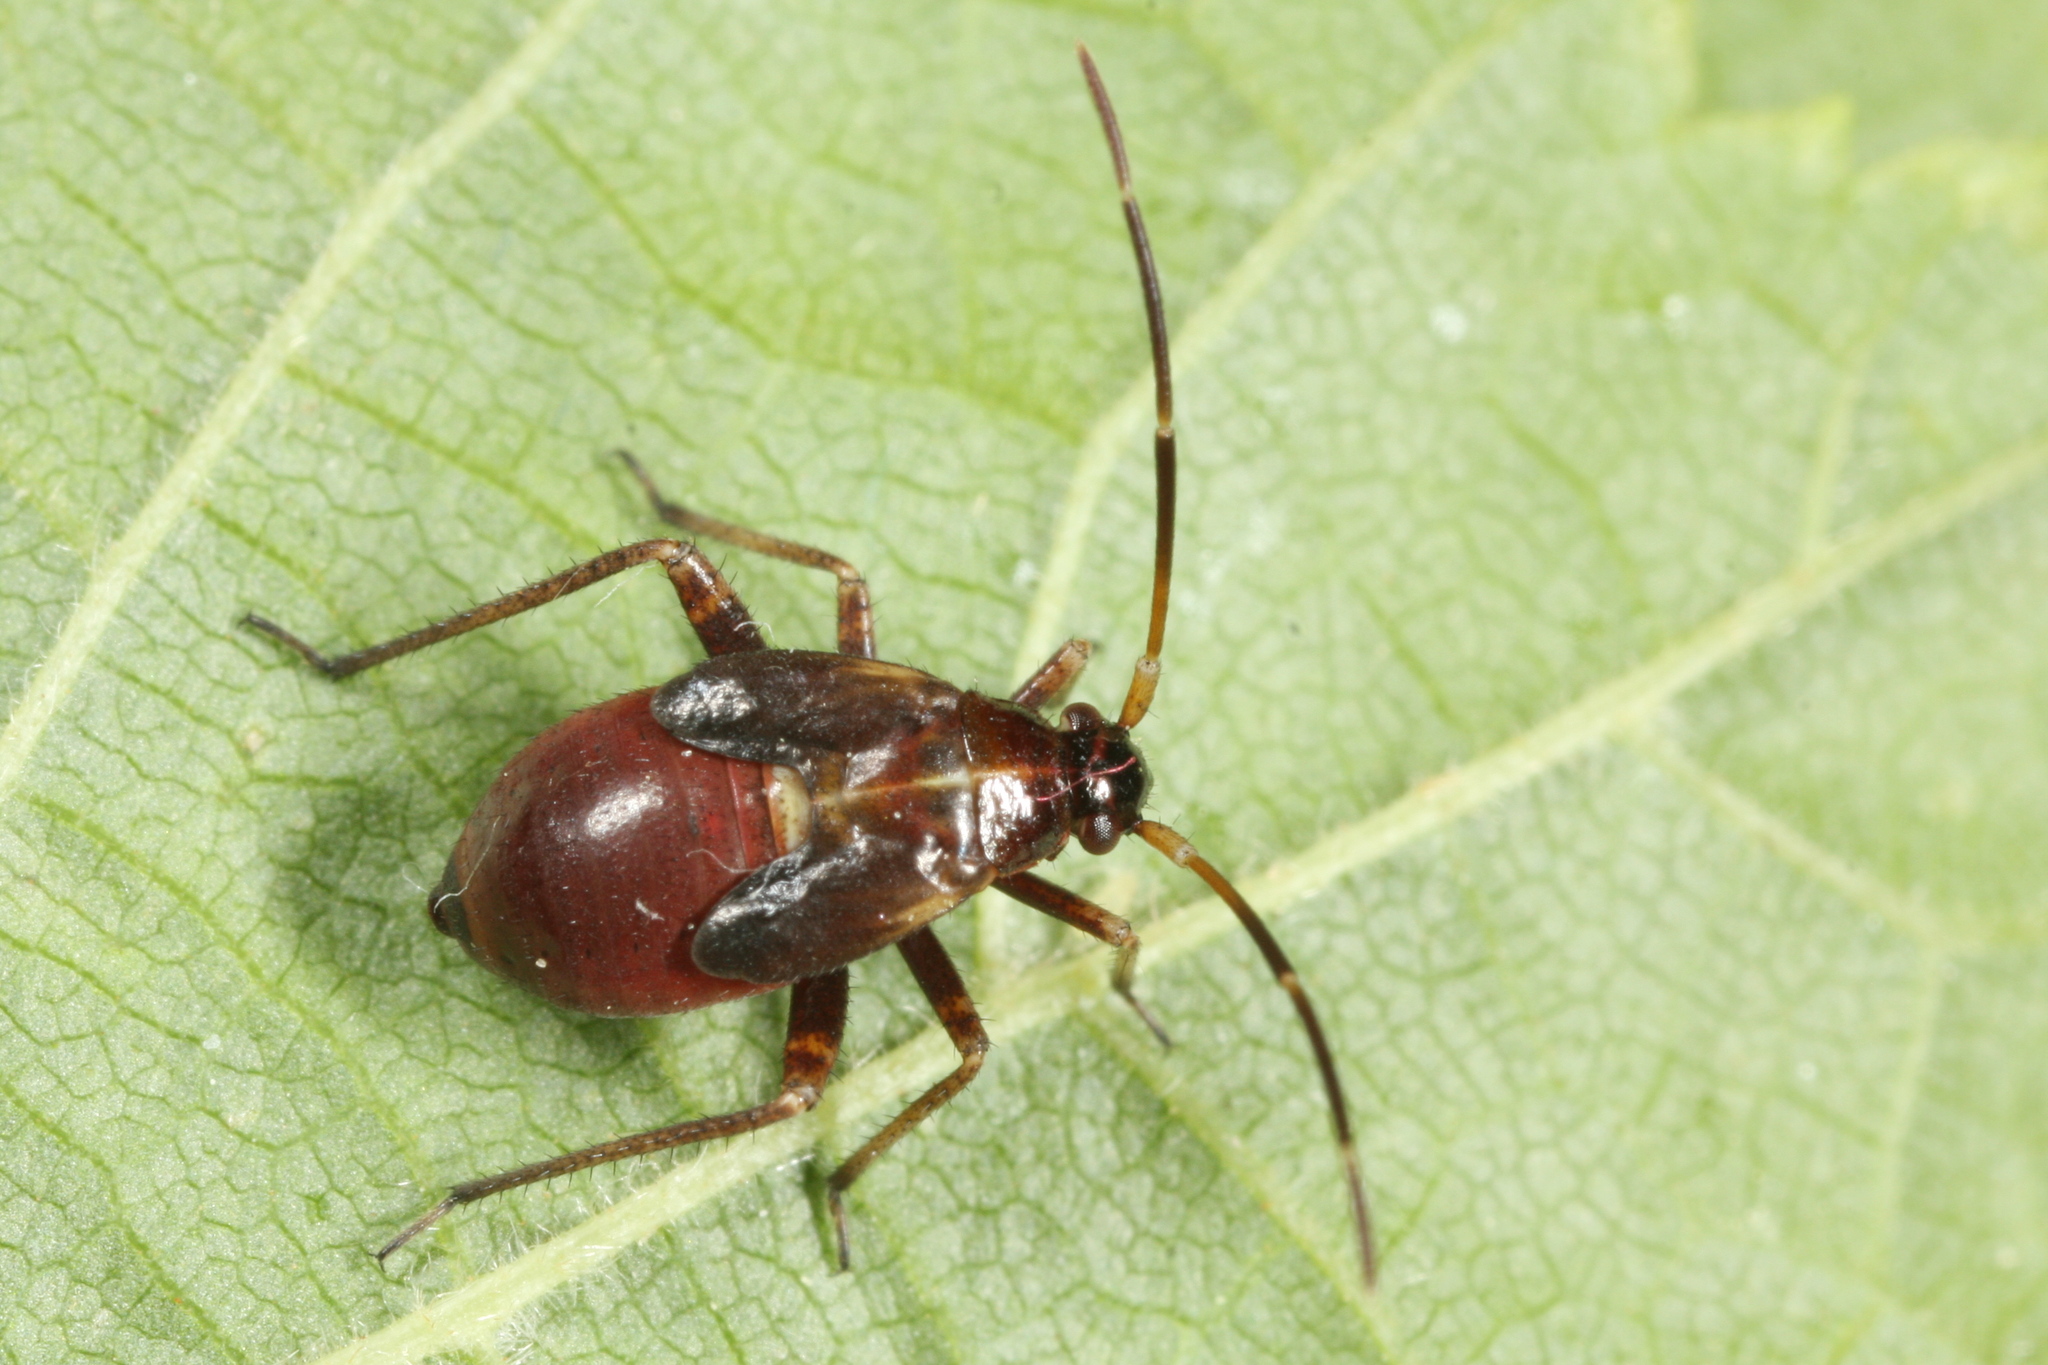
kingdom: Animalia
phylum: Arthropoda
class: Insecta
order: Hemiptera
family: Miridae
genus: Adelphocoris
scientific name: Adelphocoris seticornis
